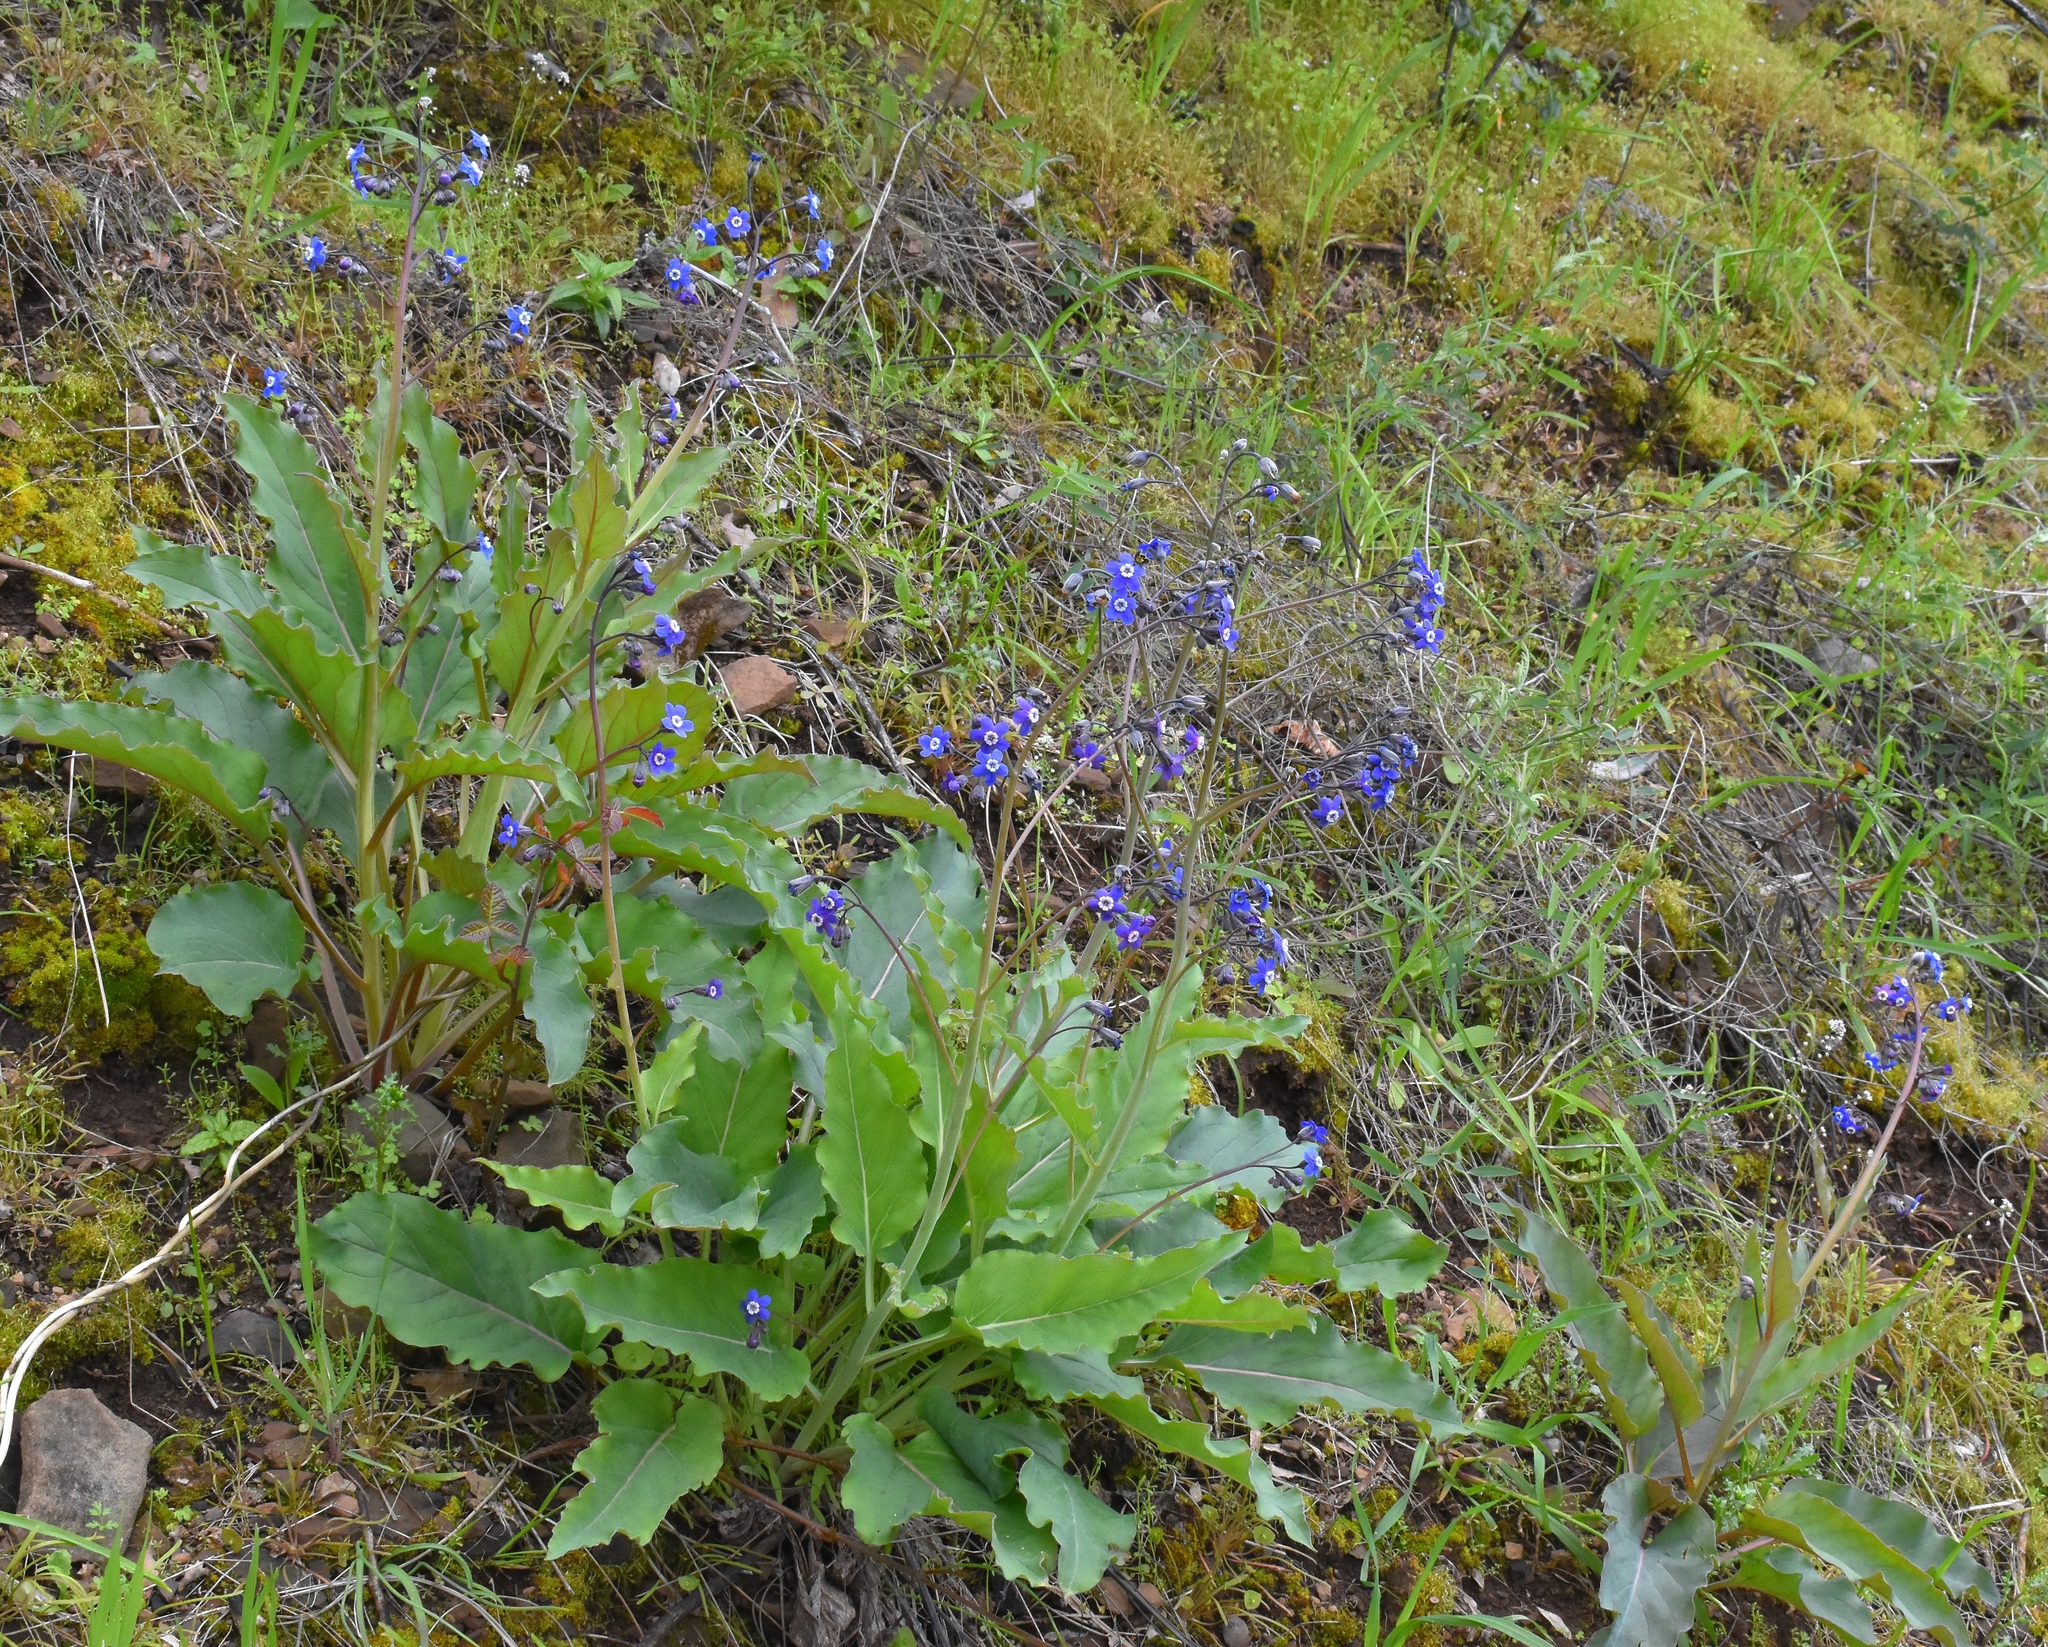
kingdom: Plantae
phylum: Tracheophyta
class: Magnoliopsida
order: Boraginales
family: Boraginaceae
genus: Adelinia
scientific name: Adelinia grande
